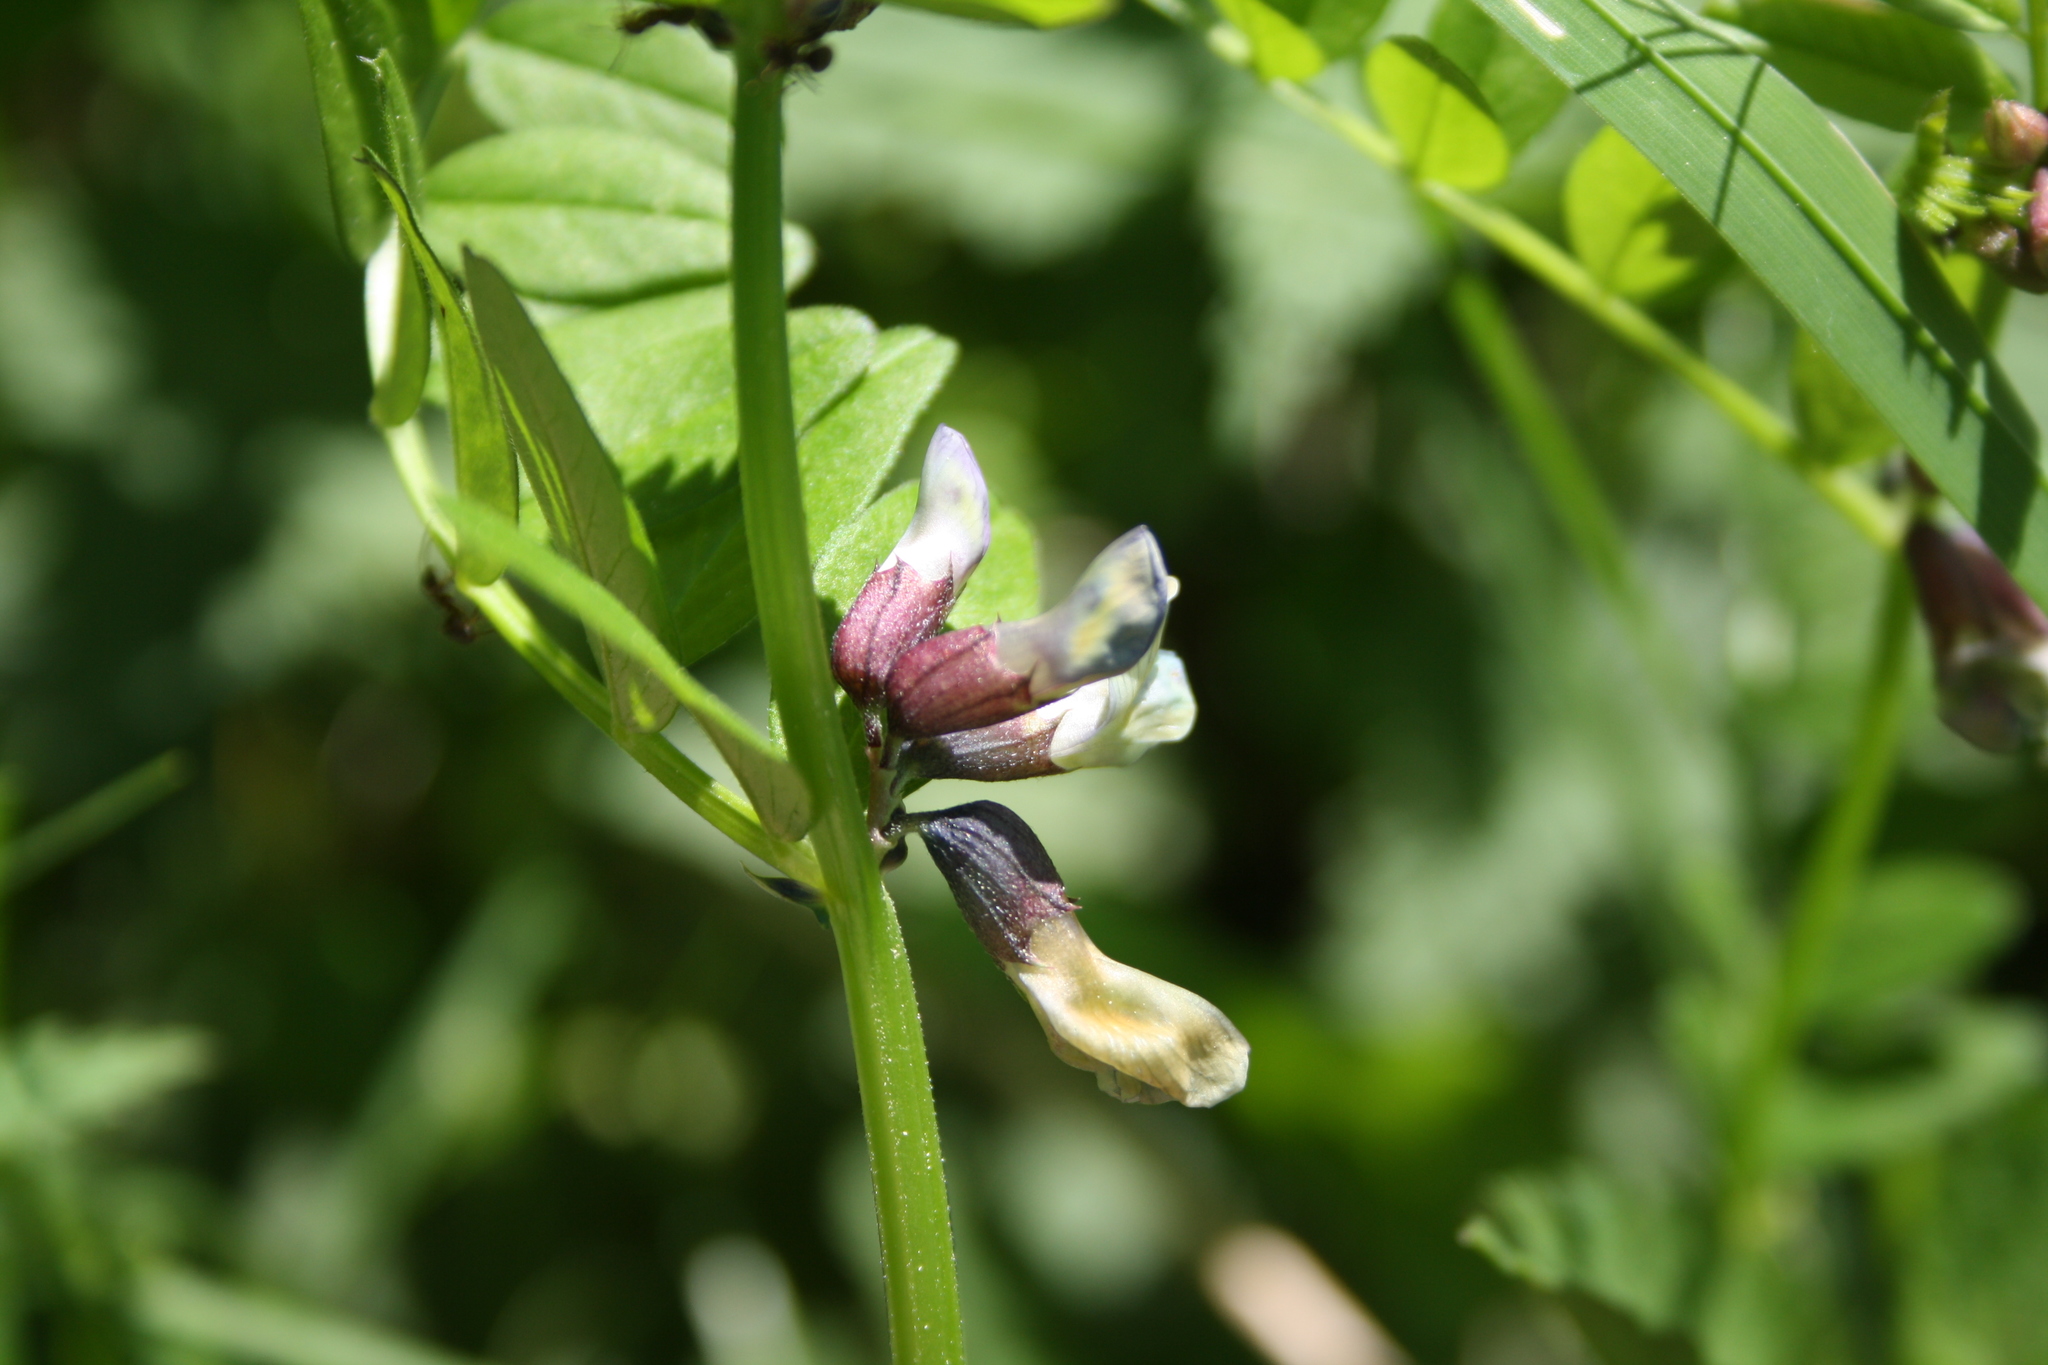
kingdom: Plantae
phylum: Tracheophyta
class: Magnoliopsida
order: Fabales
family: Fabaceae
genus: Vicia
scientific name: Vicia sepium
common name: Bush vetch
